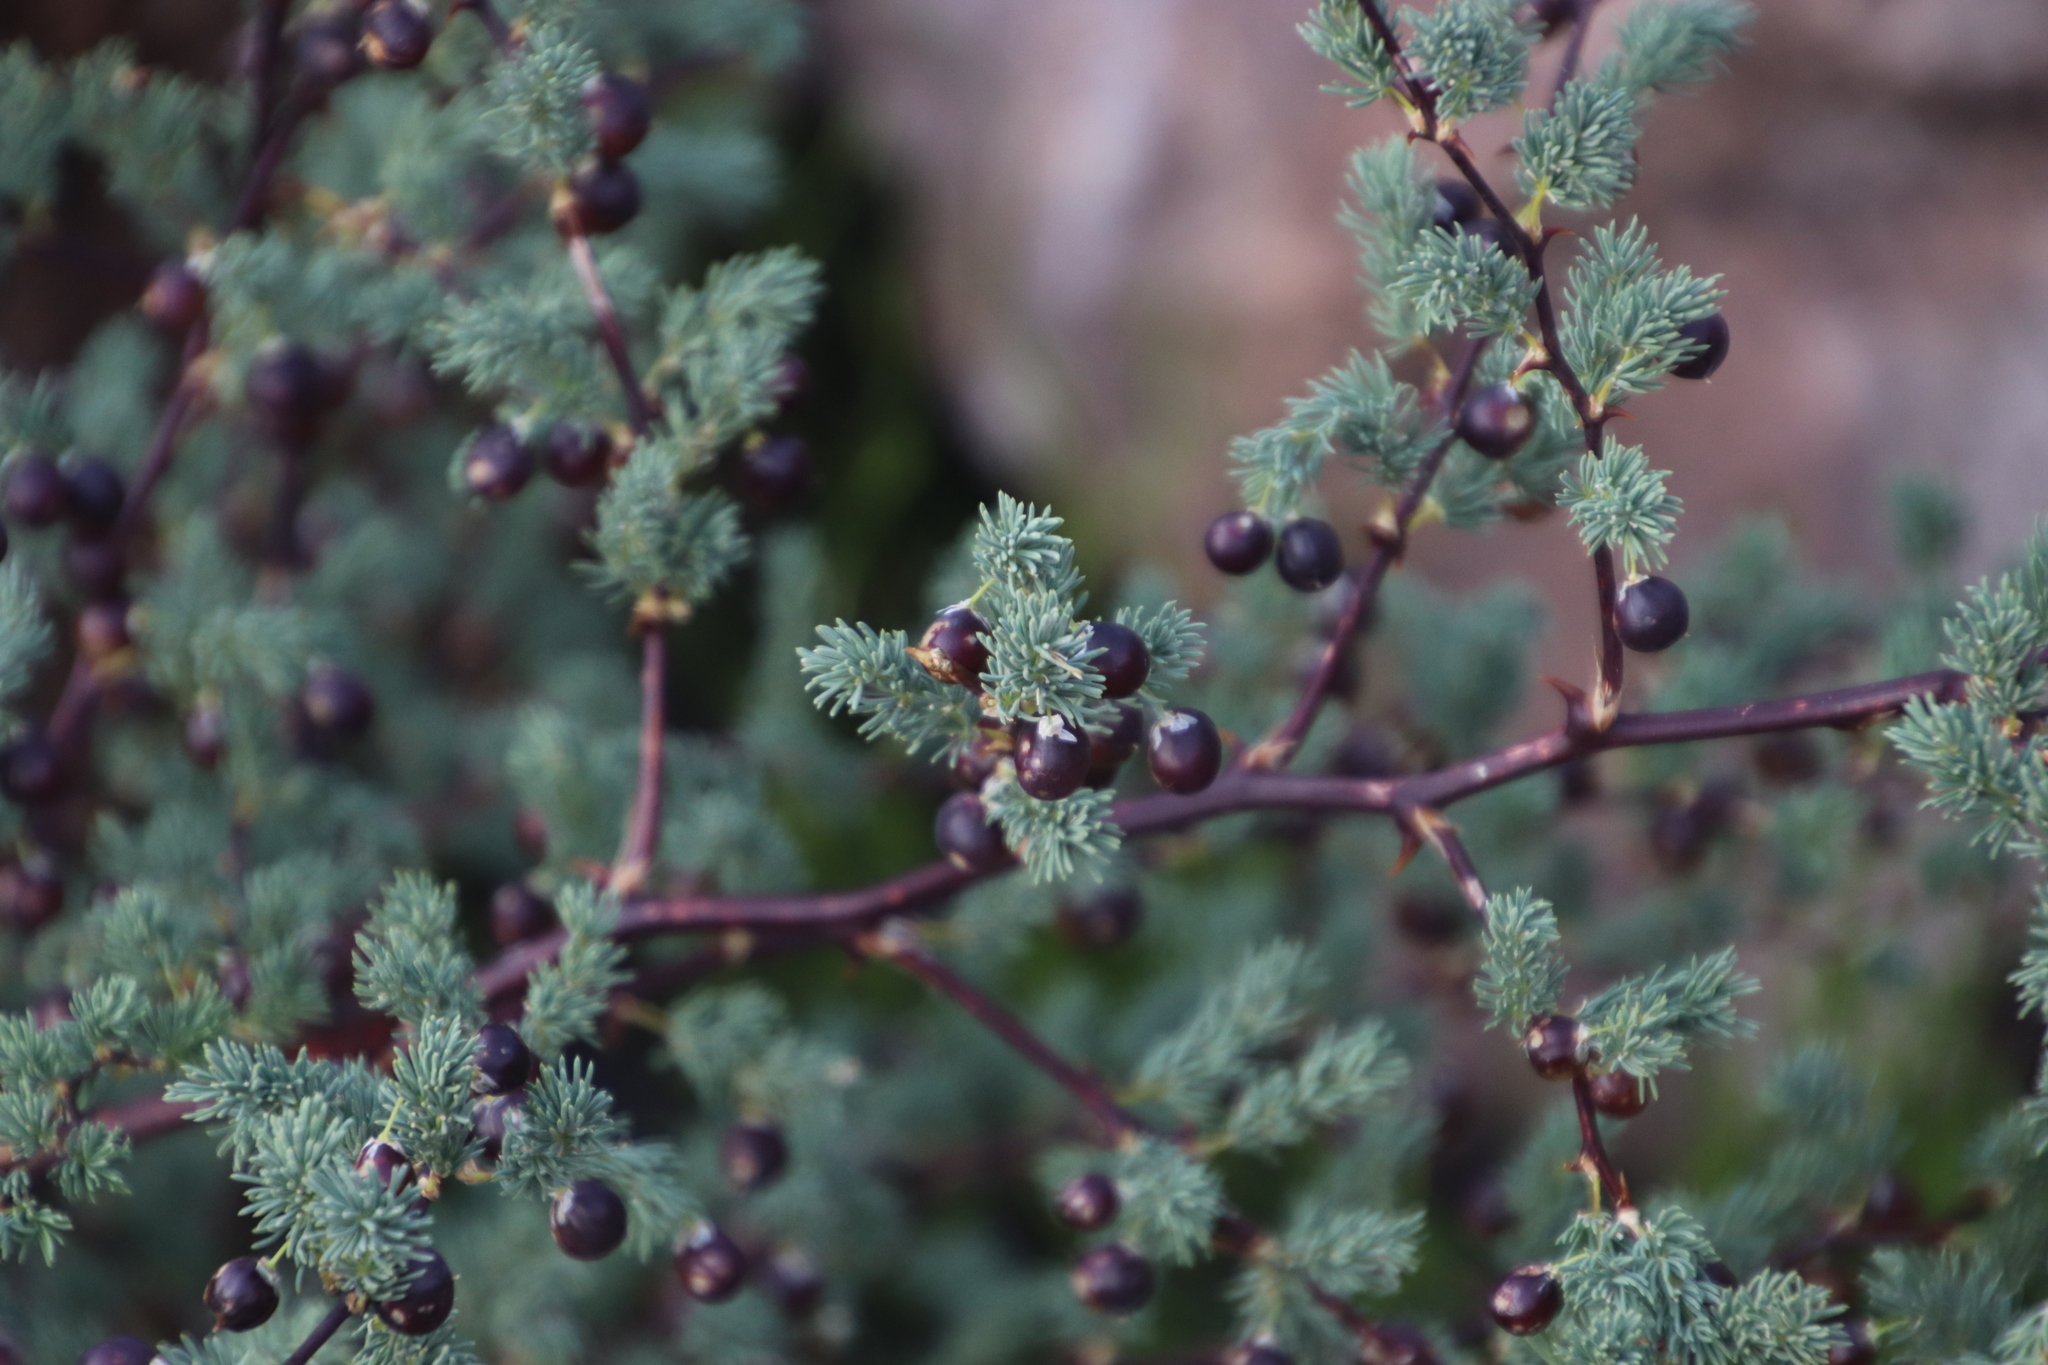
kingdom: Plantae
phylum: Tracheophyta
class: Liliopsida
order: Asparagales
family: Asparagaceae
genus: Asparagus
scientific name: Asparagus rubicundus
